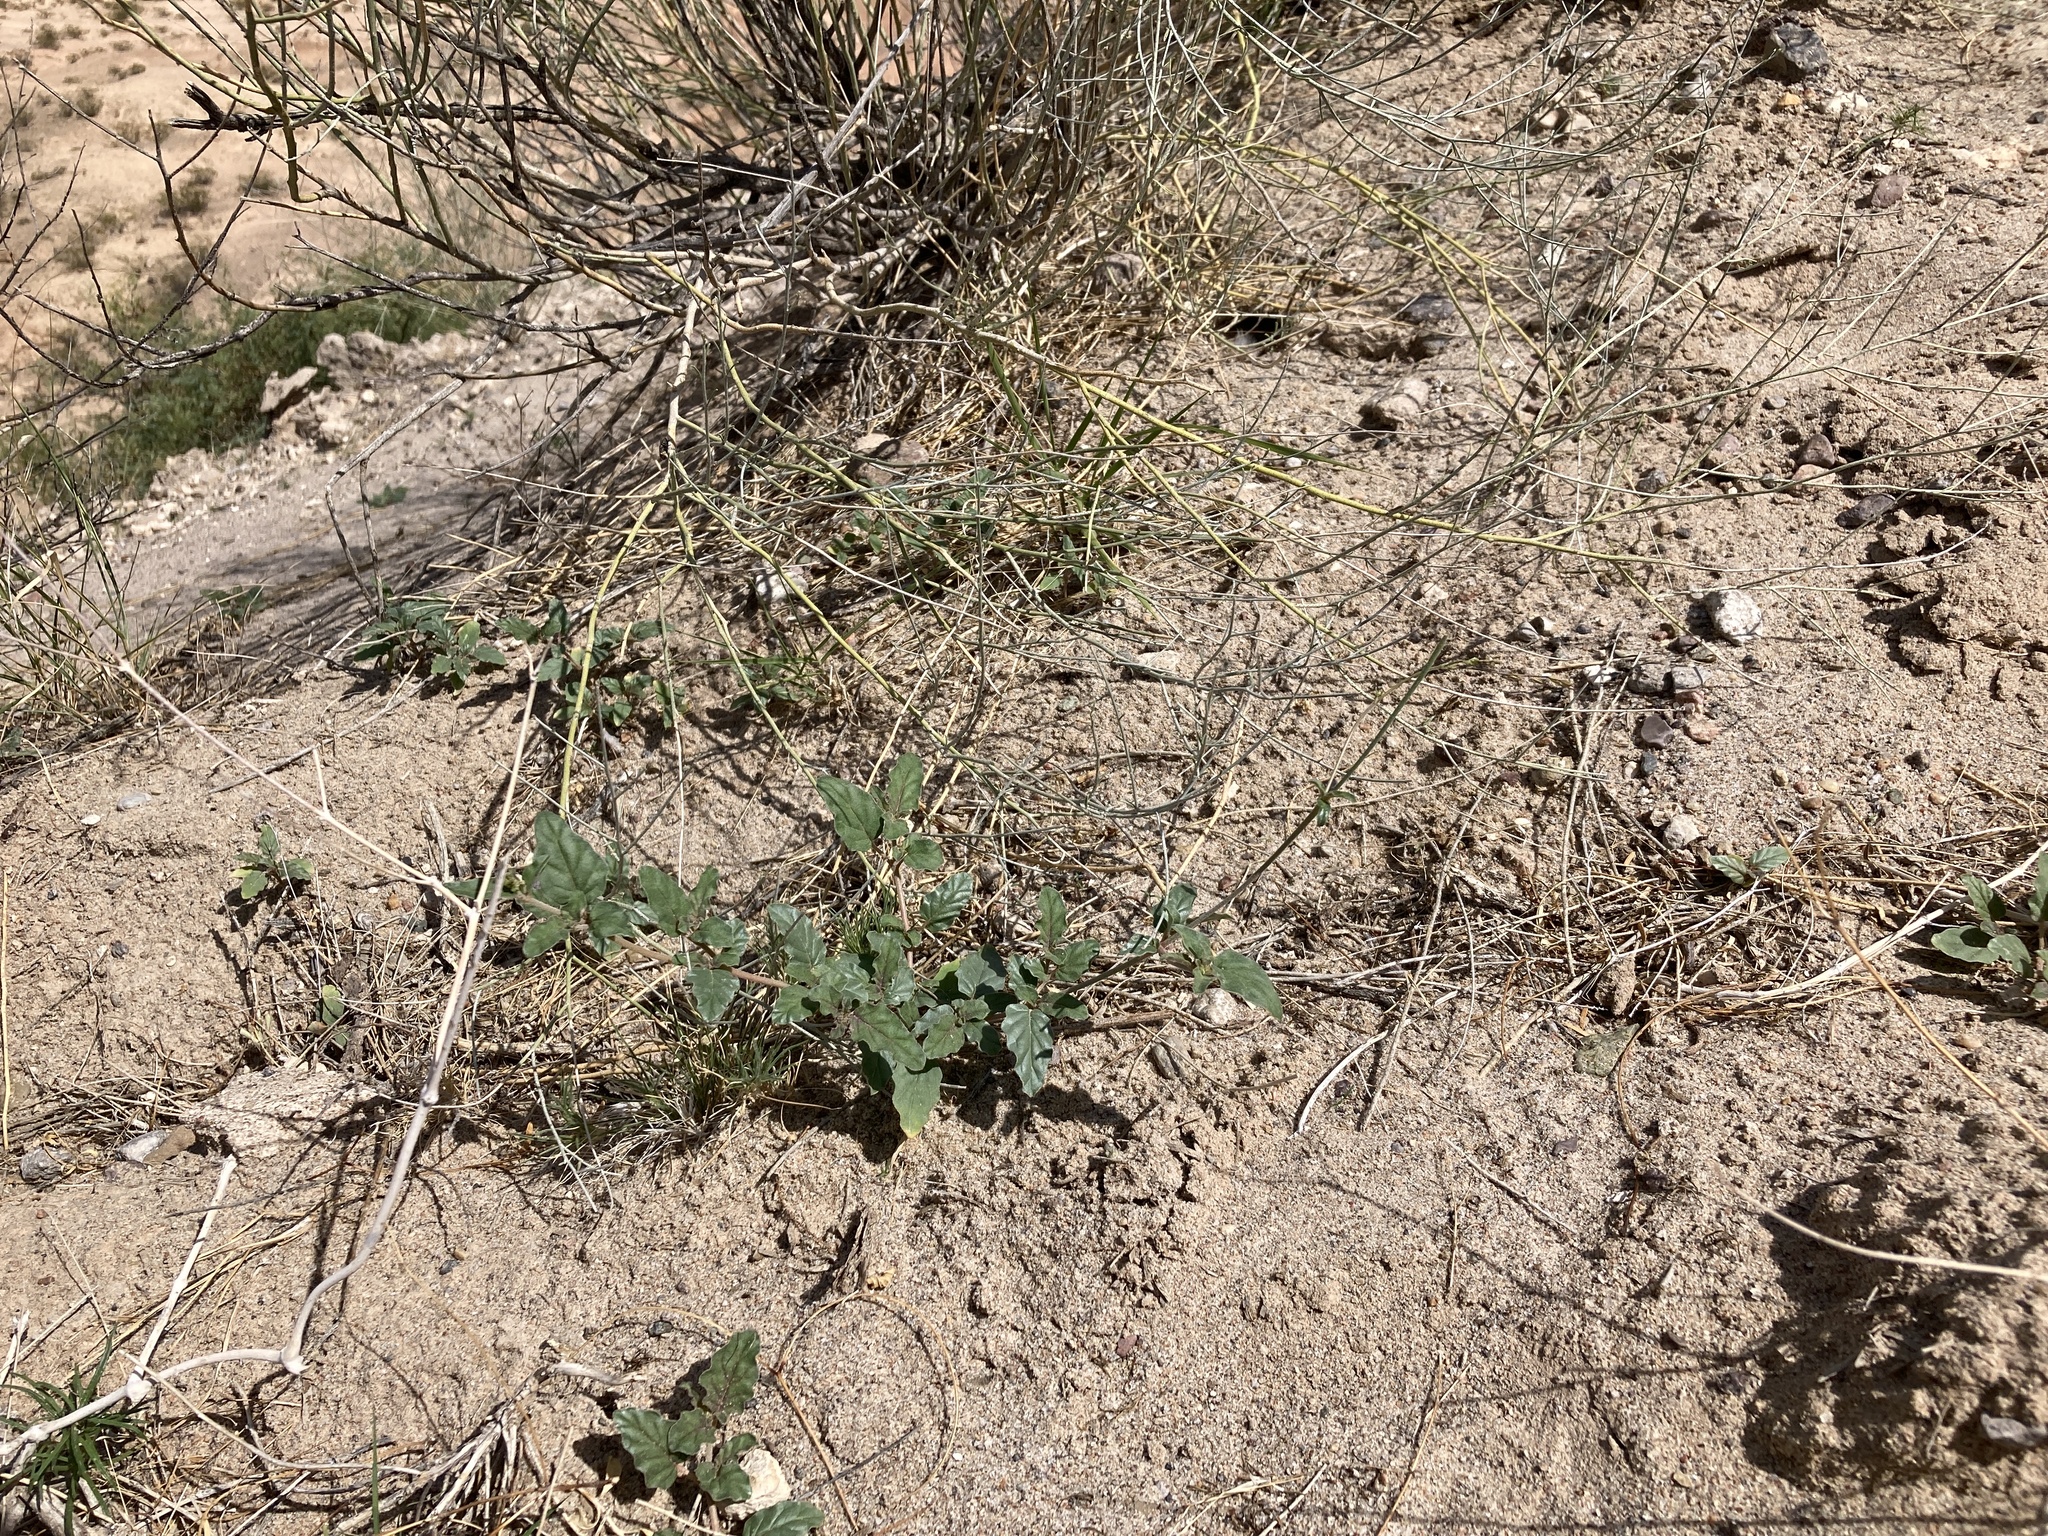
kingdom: Plantae
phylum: Tracheophyta
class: Magnoliopsida
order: Caryophyllales
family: Nyctaginaceae
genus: Boerhavia
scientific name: Boerhavia torreyana
